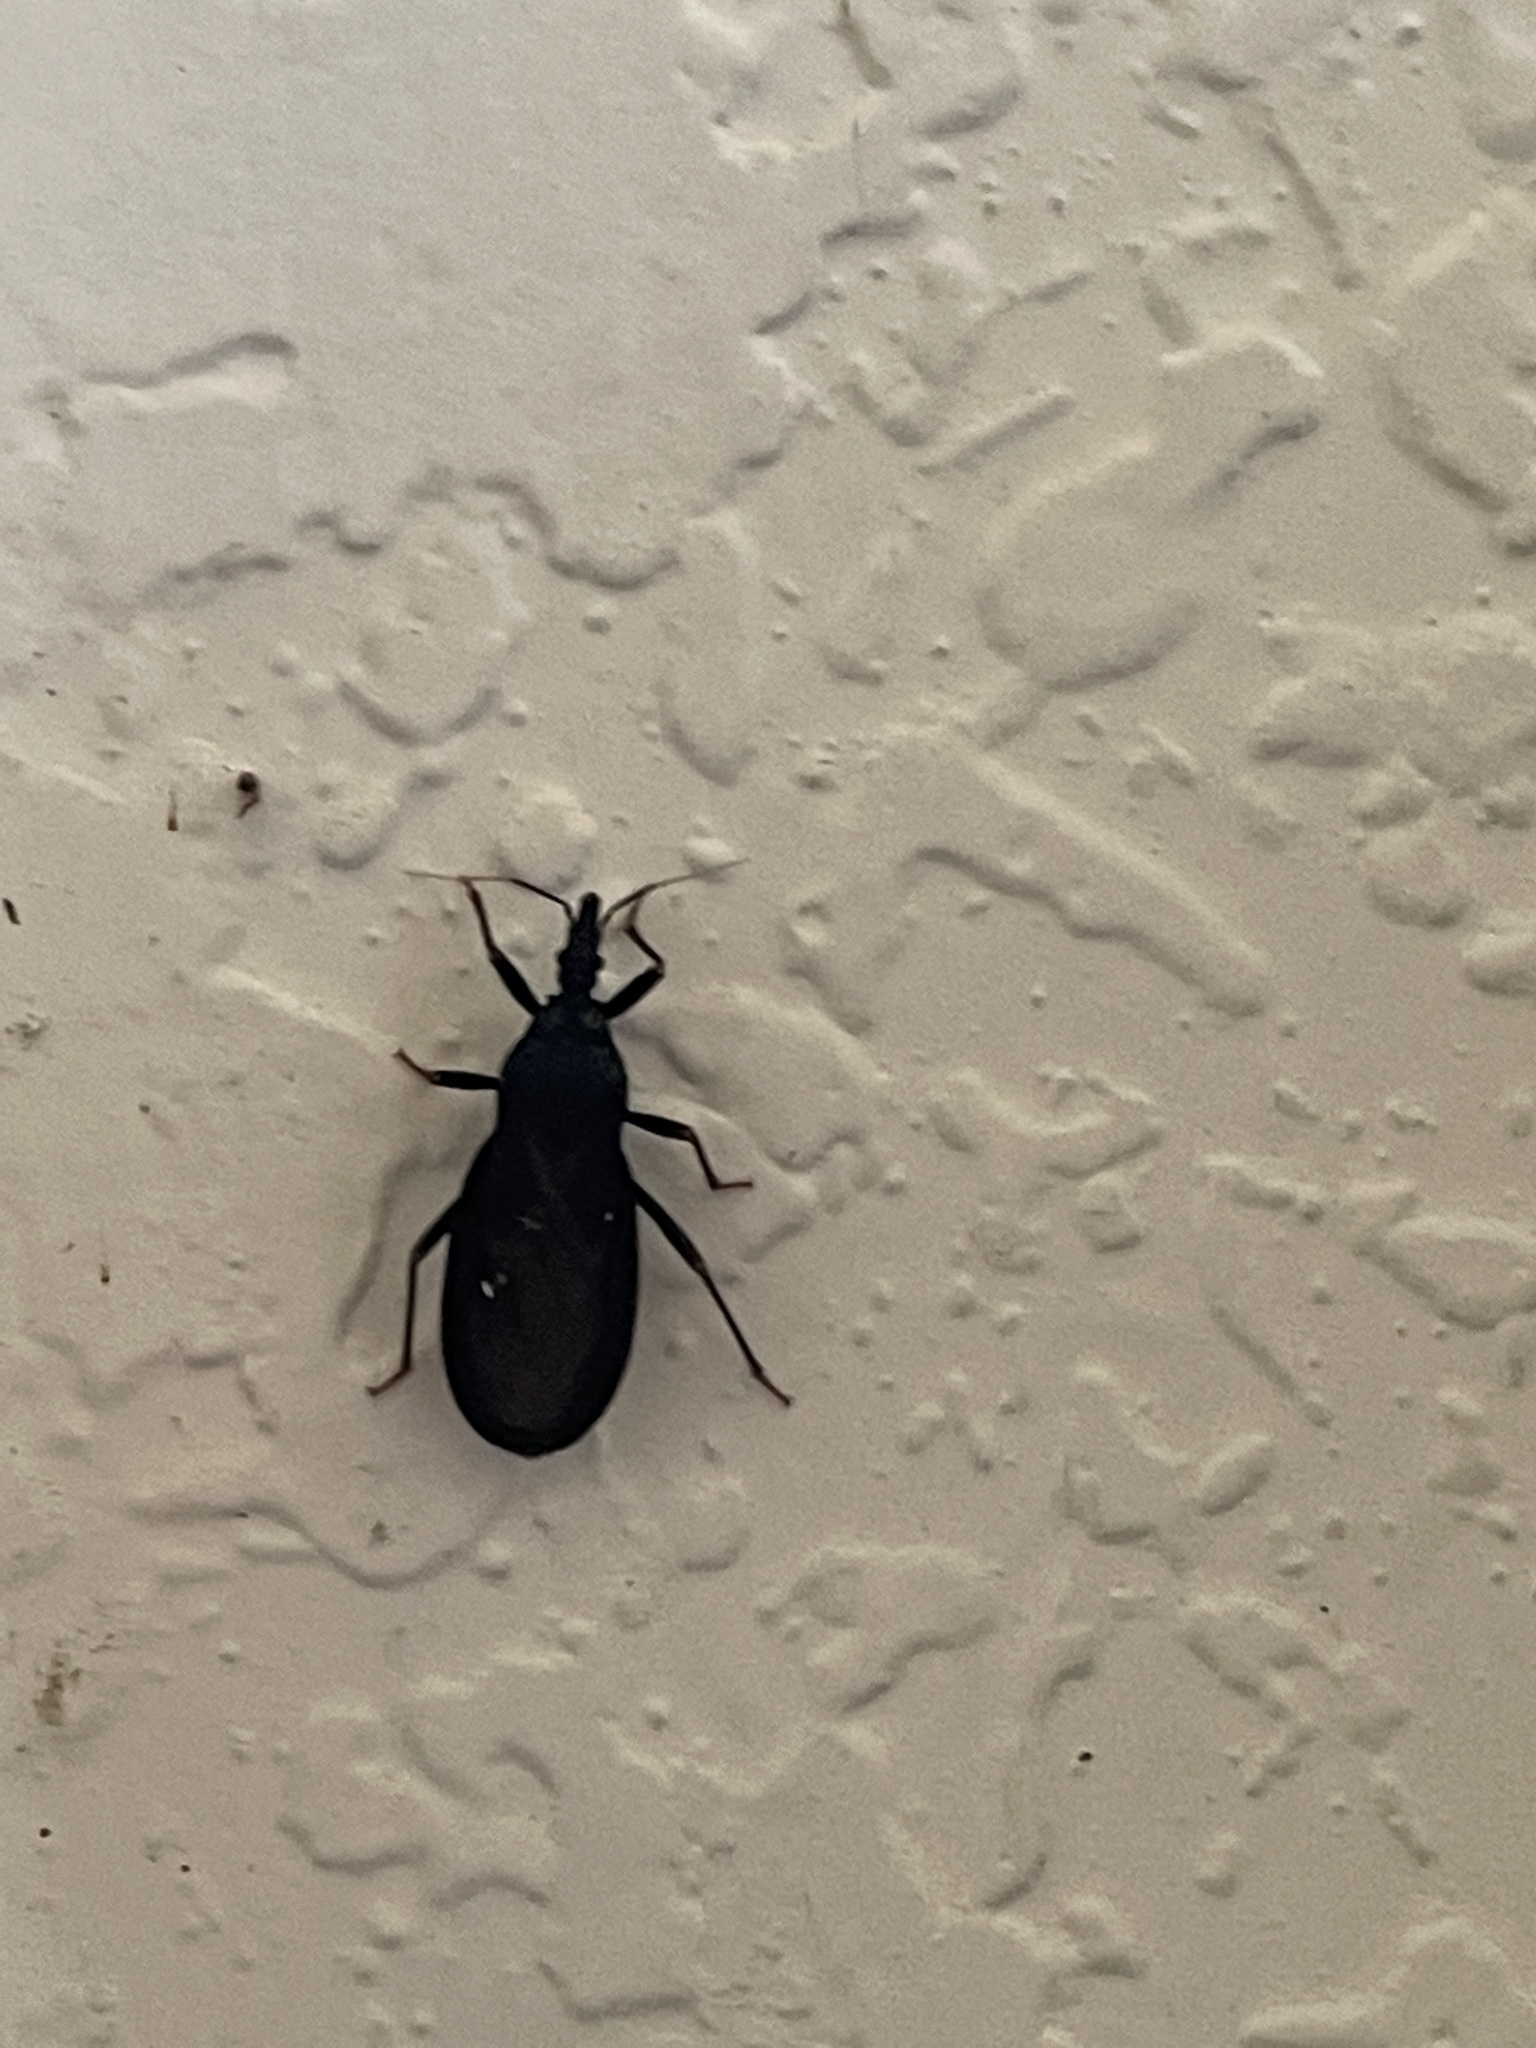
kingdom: Animalia
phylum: Arthropoda
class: Insecta
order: Hemiptera
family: Reduviidae
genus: Triatoma
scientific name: Triatoma protracta
